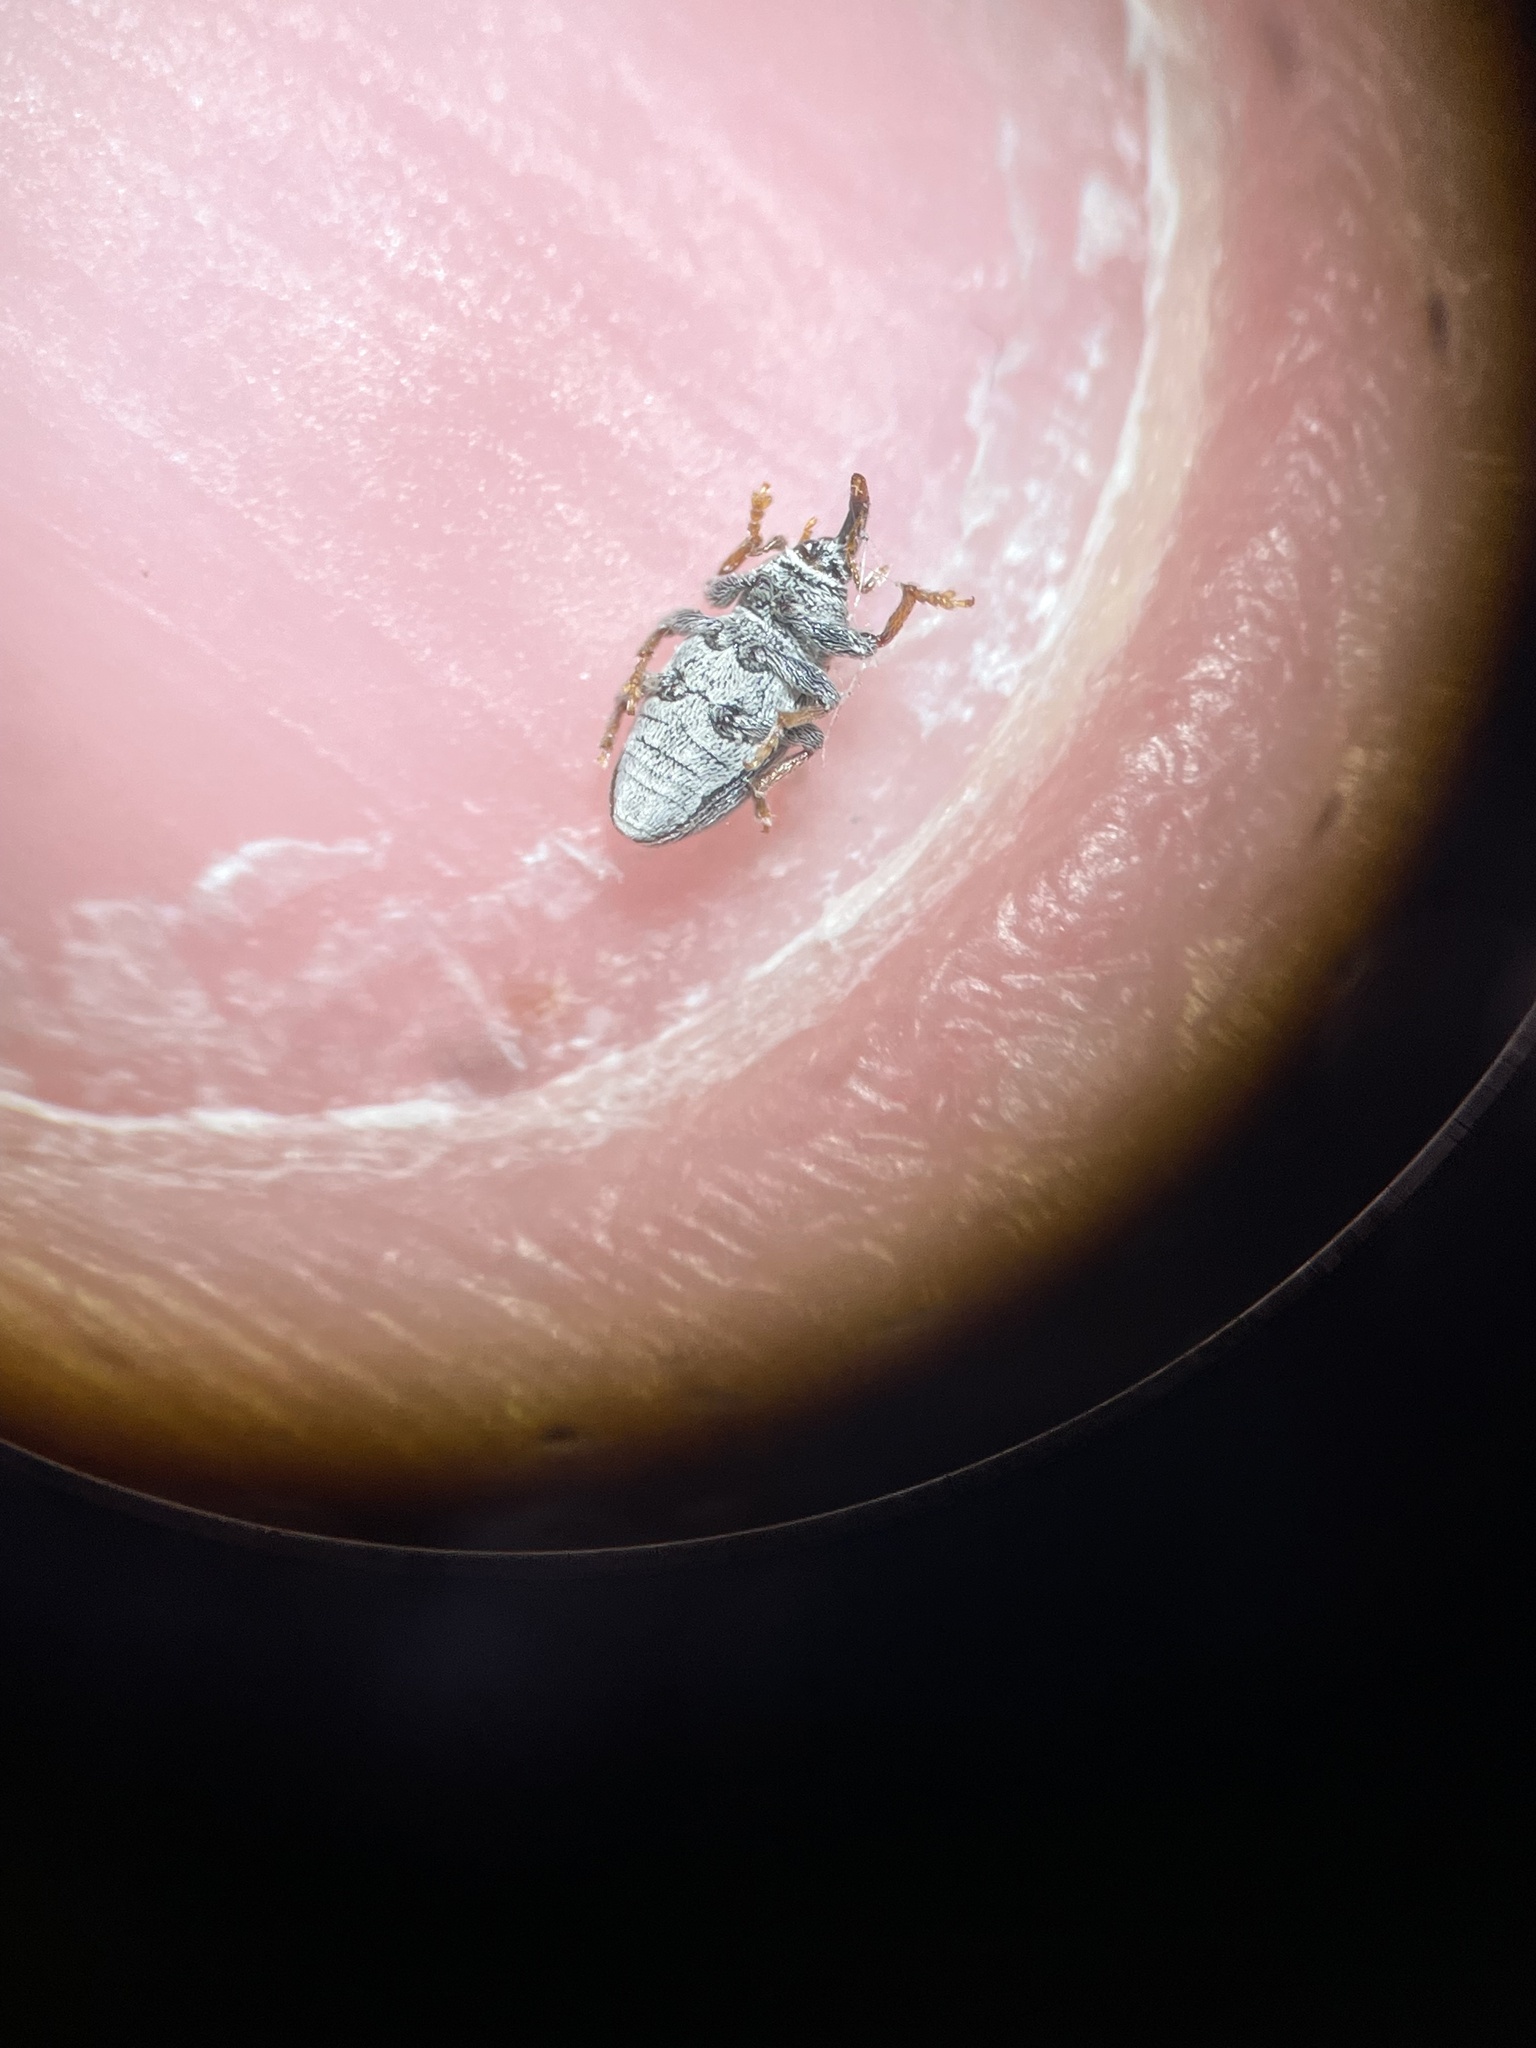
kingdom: Animalia
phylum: Arthropoda
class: Insecta
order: Coleoptera
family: Curculionidae
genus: Tychius
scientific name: Tychius picirostris
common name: Clover seed weevil
